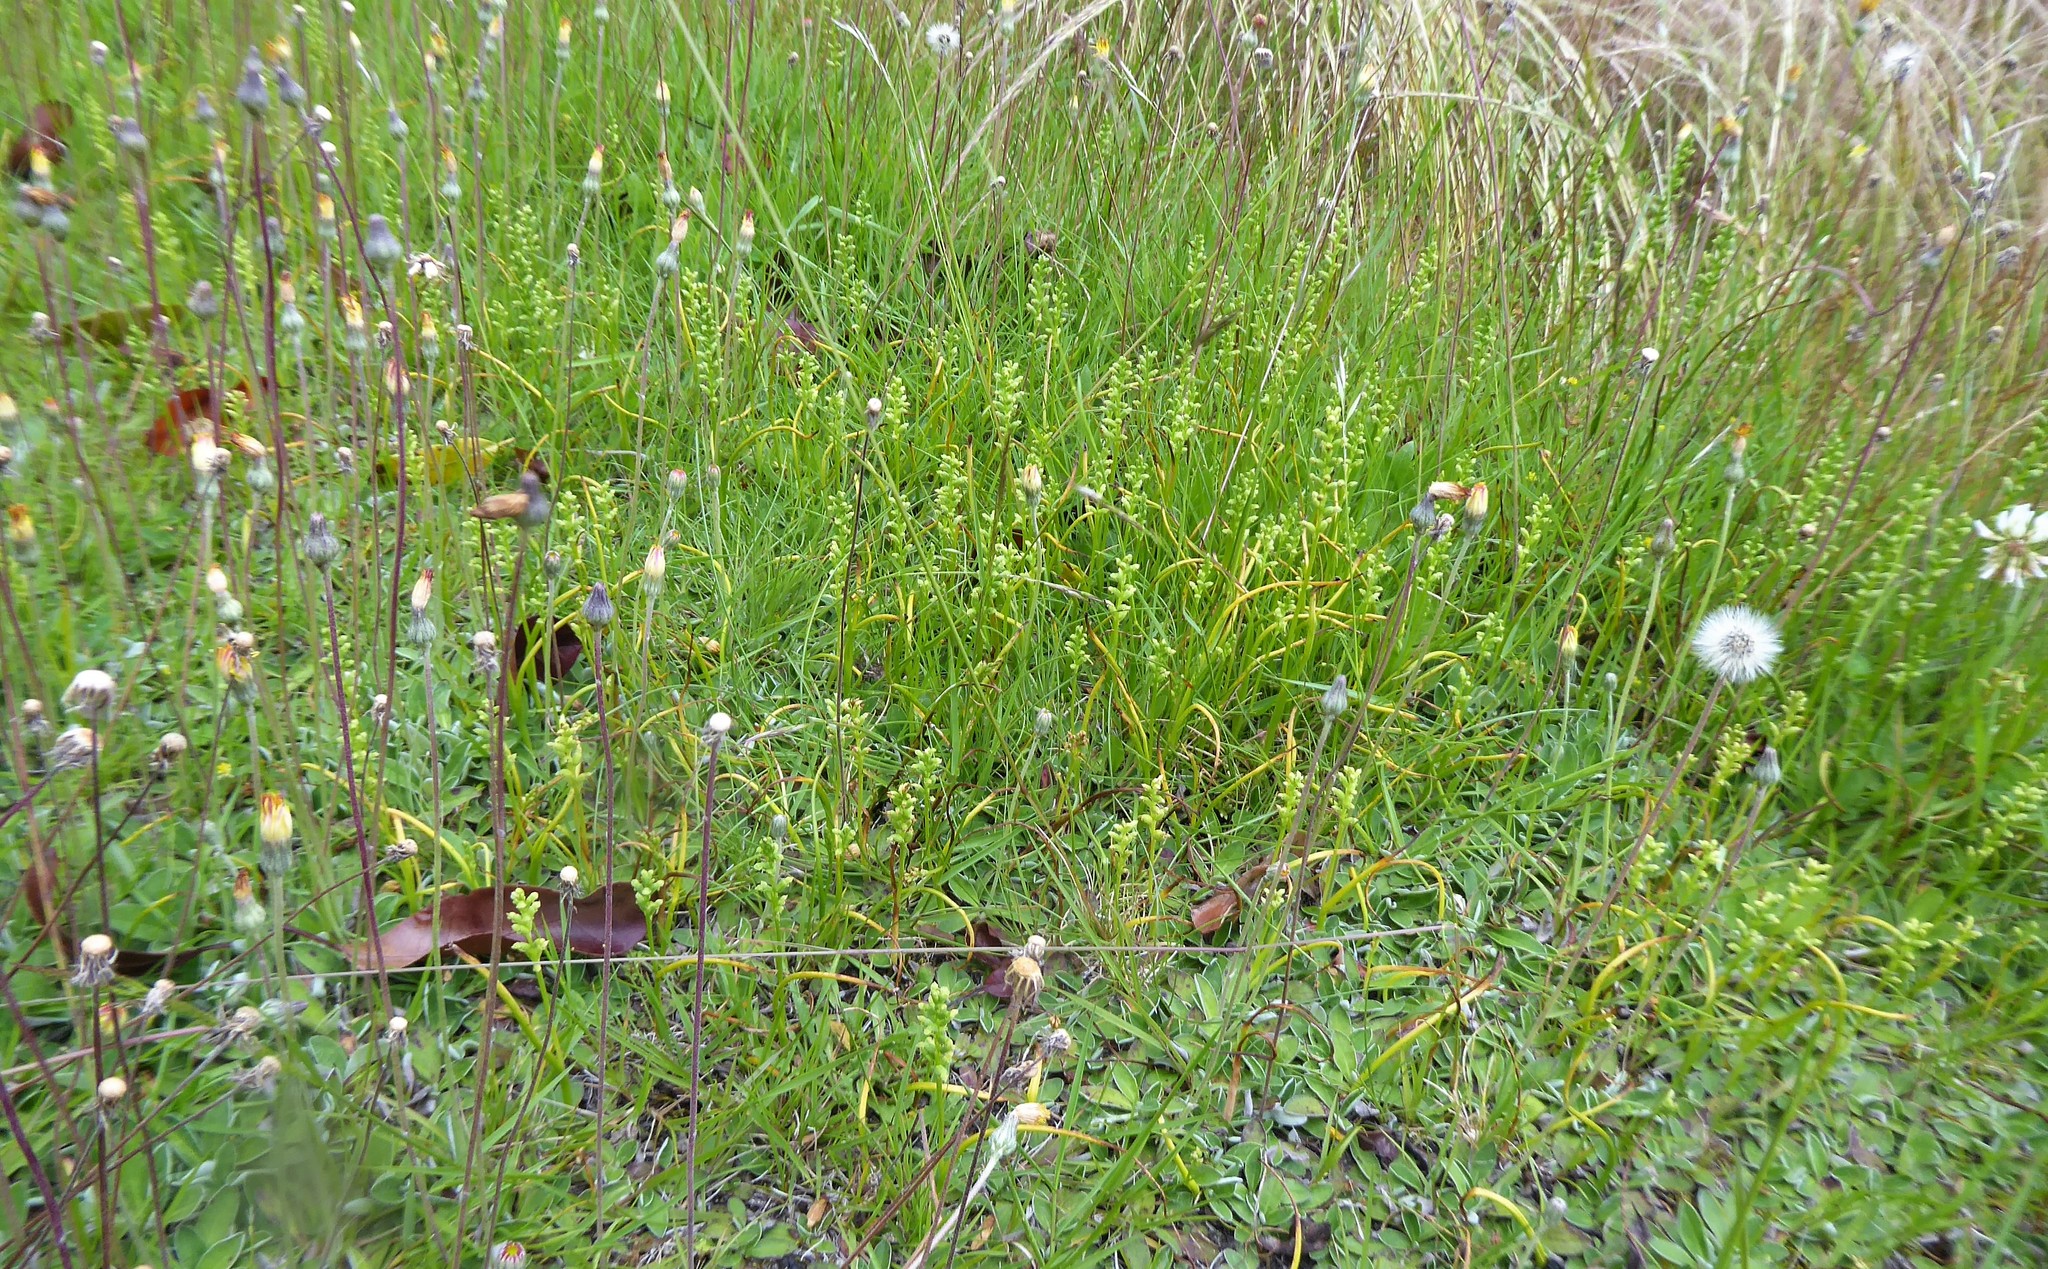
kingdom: Plantae
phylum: Tracheophyta
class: Liliopsida
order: Asparagales
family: Orchidaceae
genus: Microtis
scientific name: Microtis unifolia
